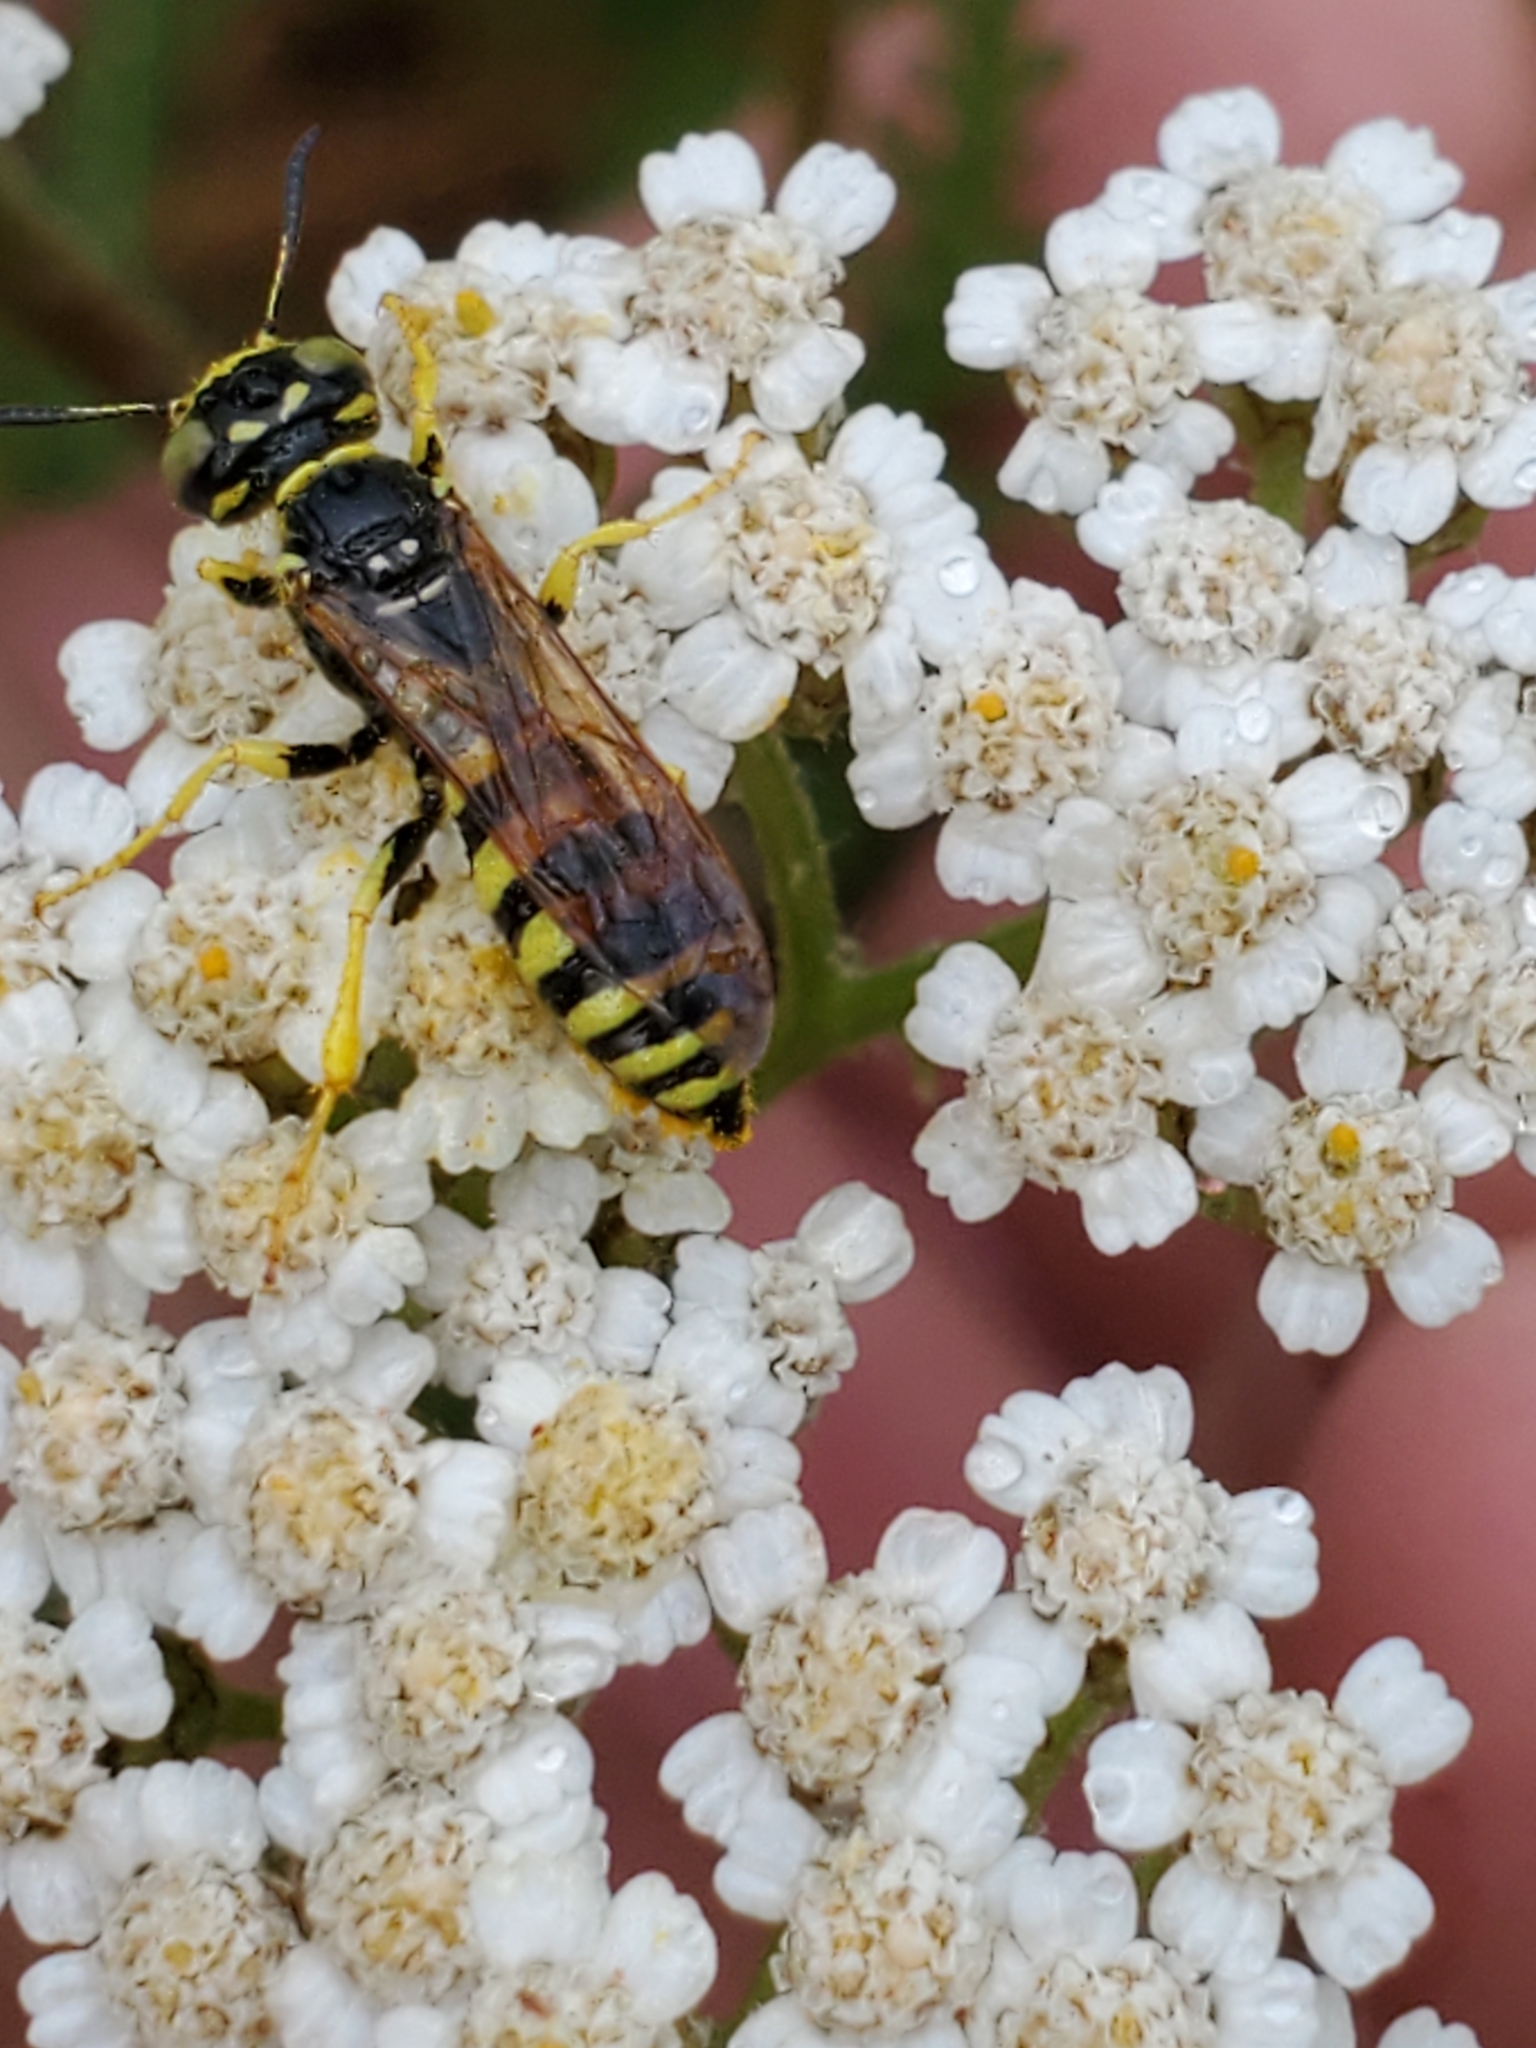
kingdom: Animalia
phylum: Arthropoda
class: Insecta
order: Hymenoptera
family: Crabronidae
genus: Philanthus
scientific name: Philanthus crabroniformis
